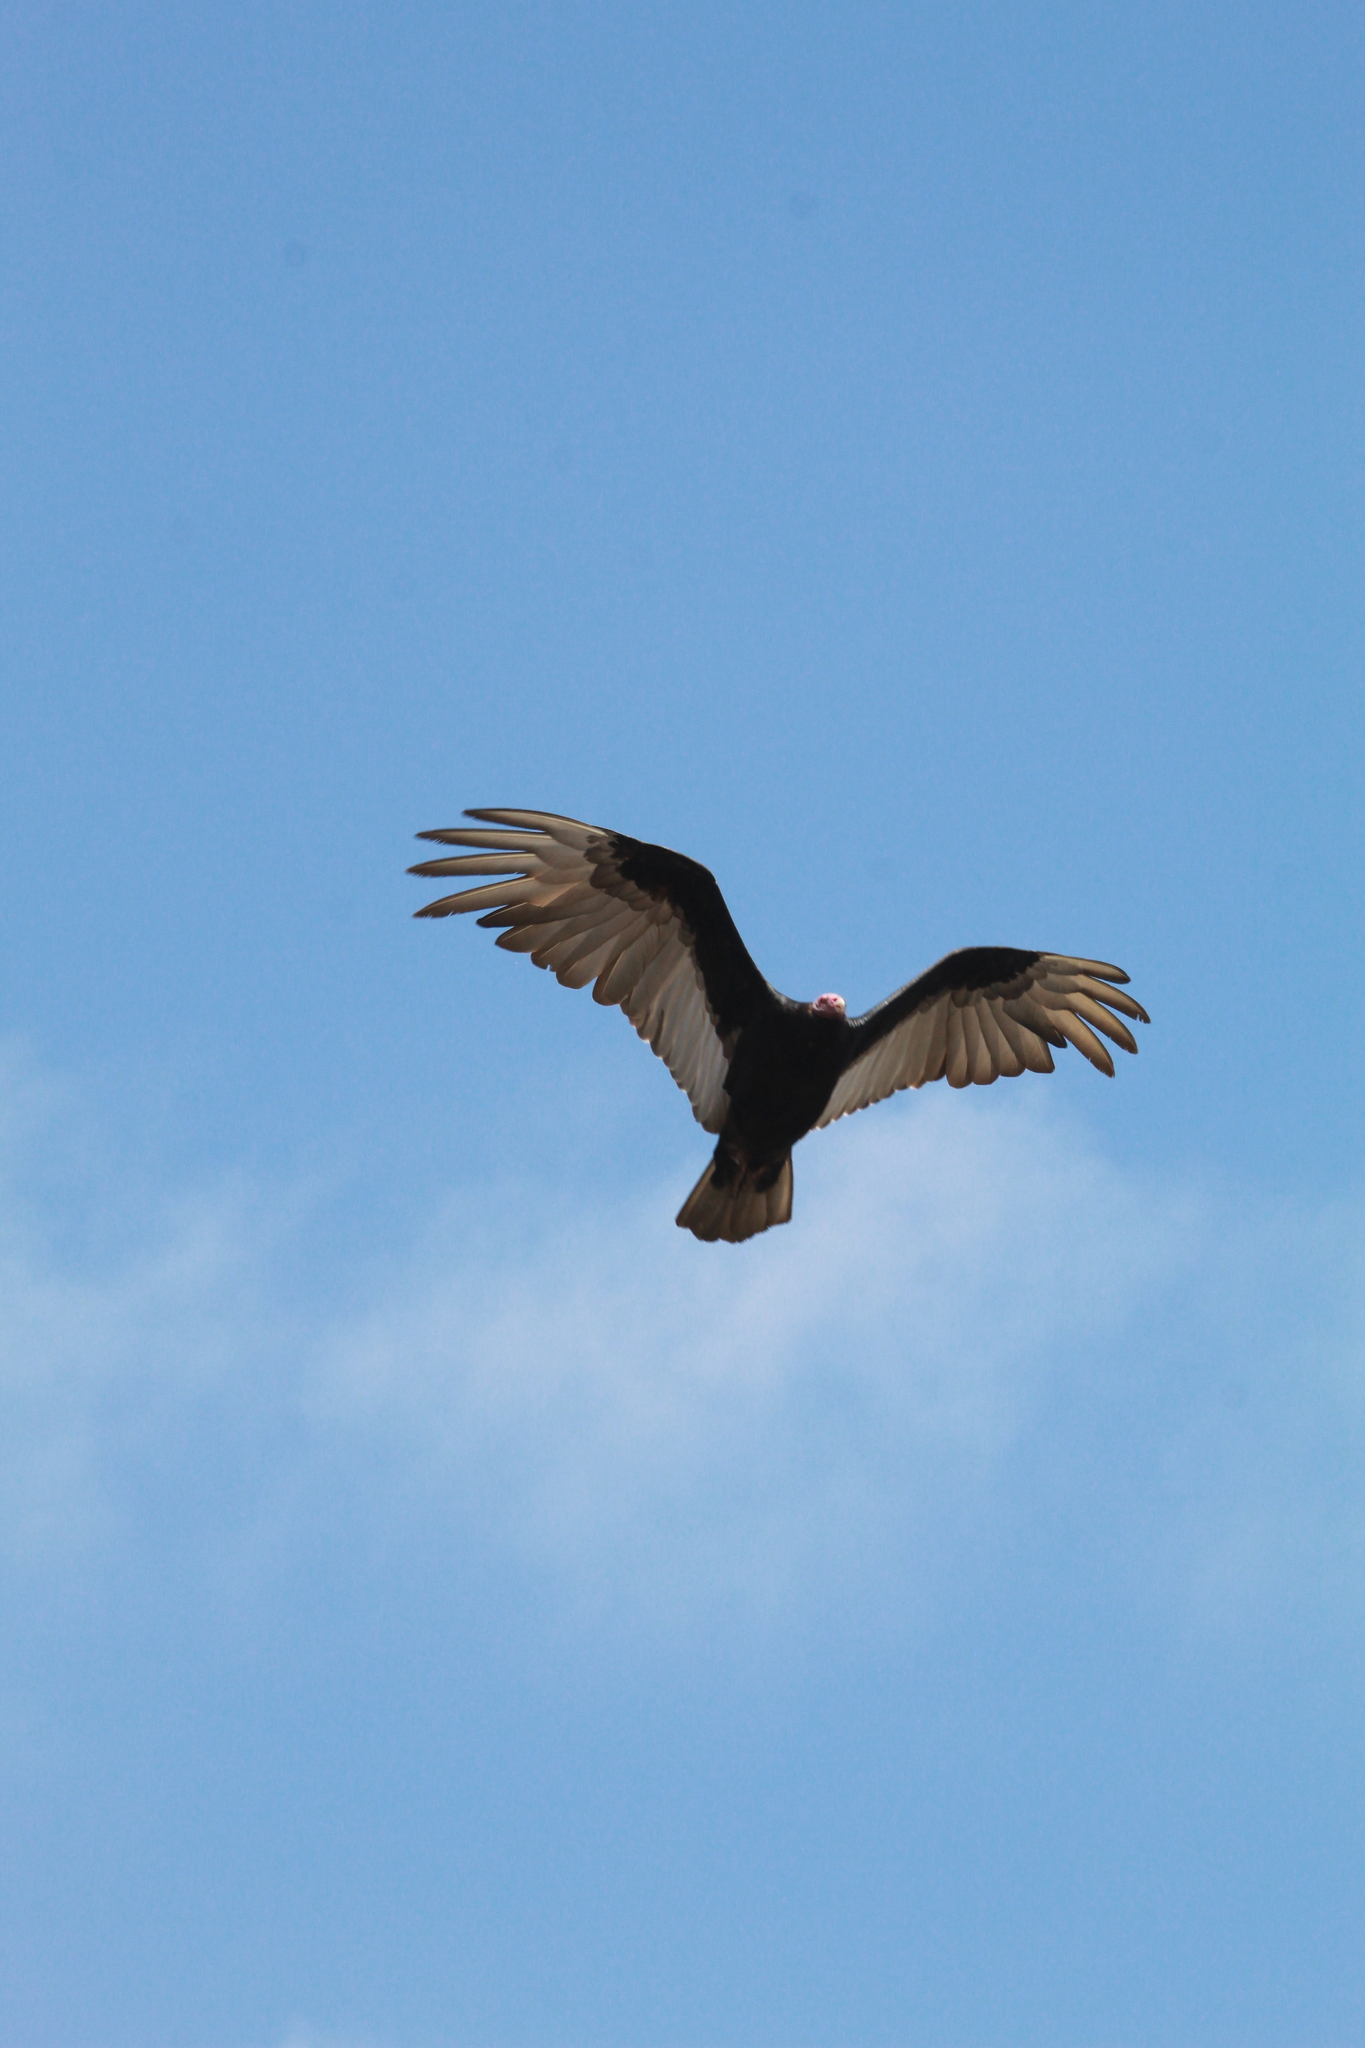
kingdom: Animalia
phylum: Chordata
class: Aves
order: Accipitriformes
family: Cathartidae
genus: Cathartes
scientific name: Cathartes aura
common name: Turkey vulture
